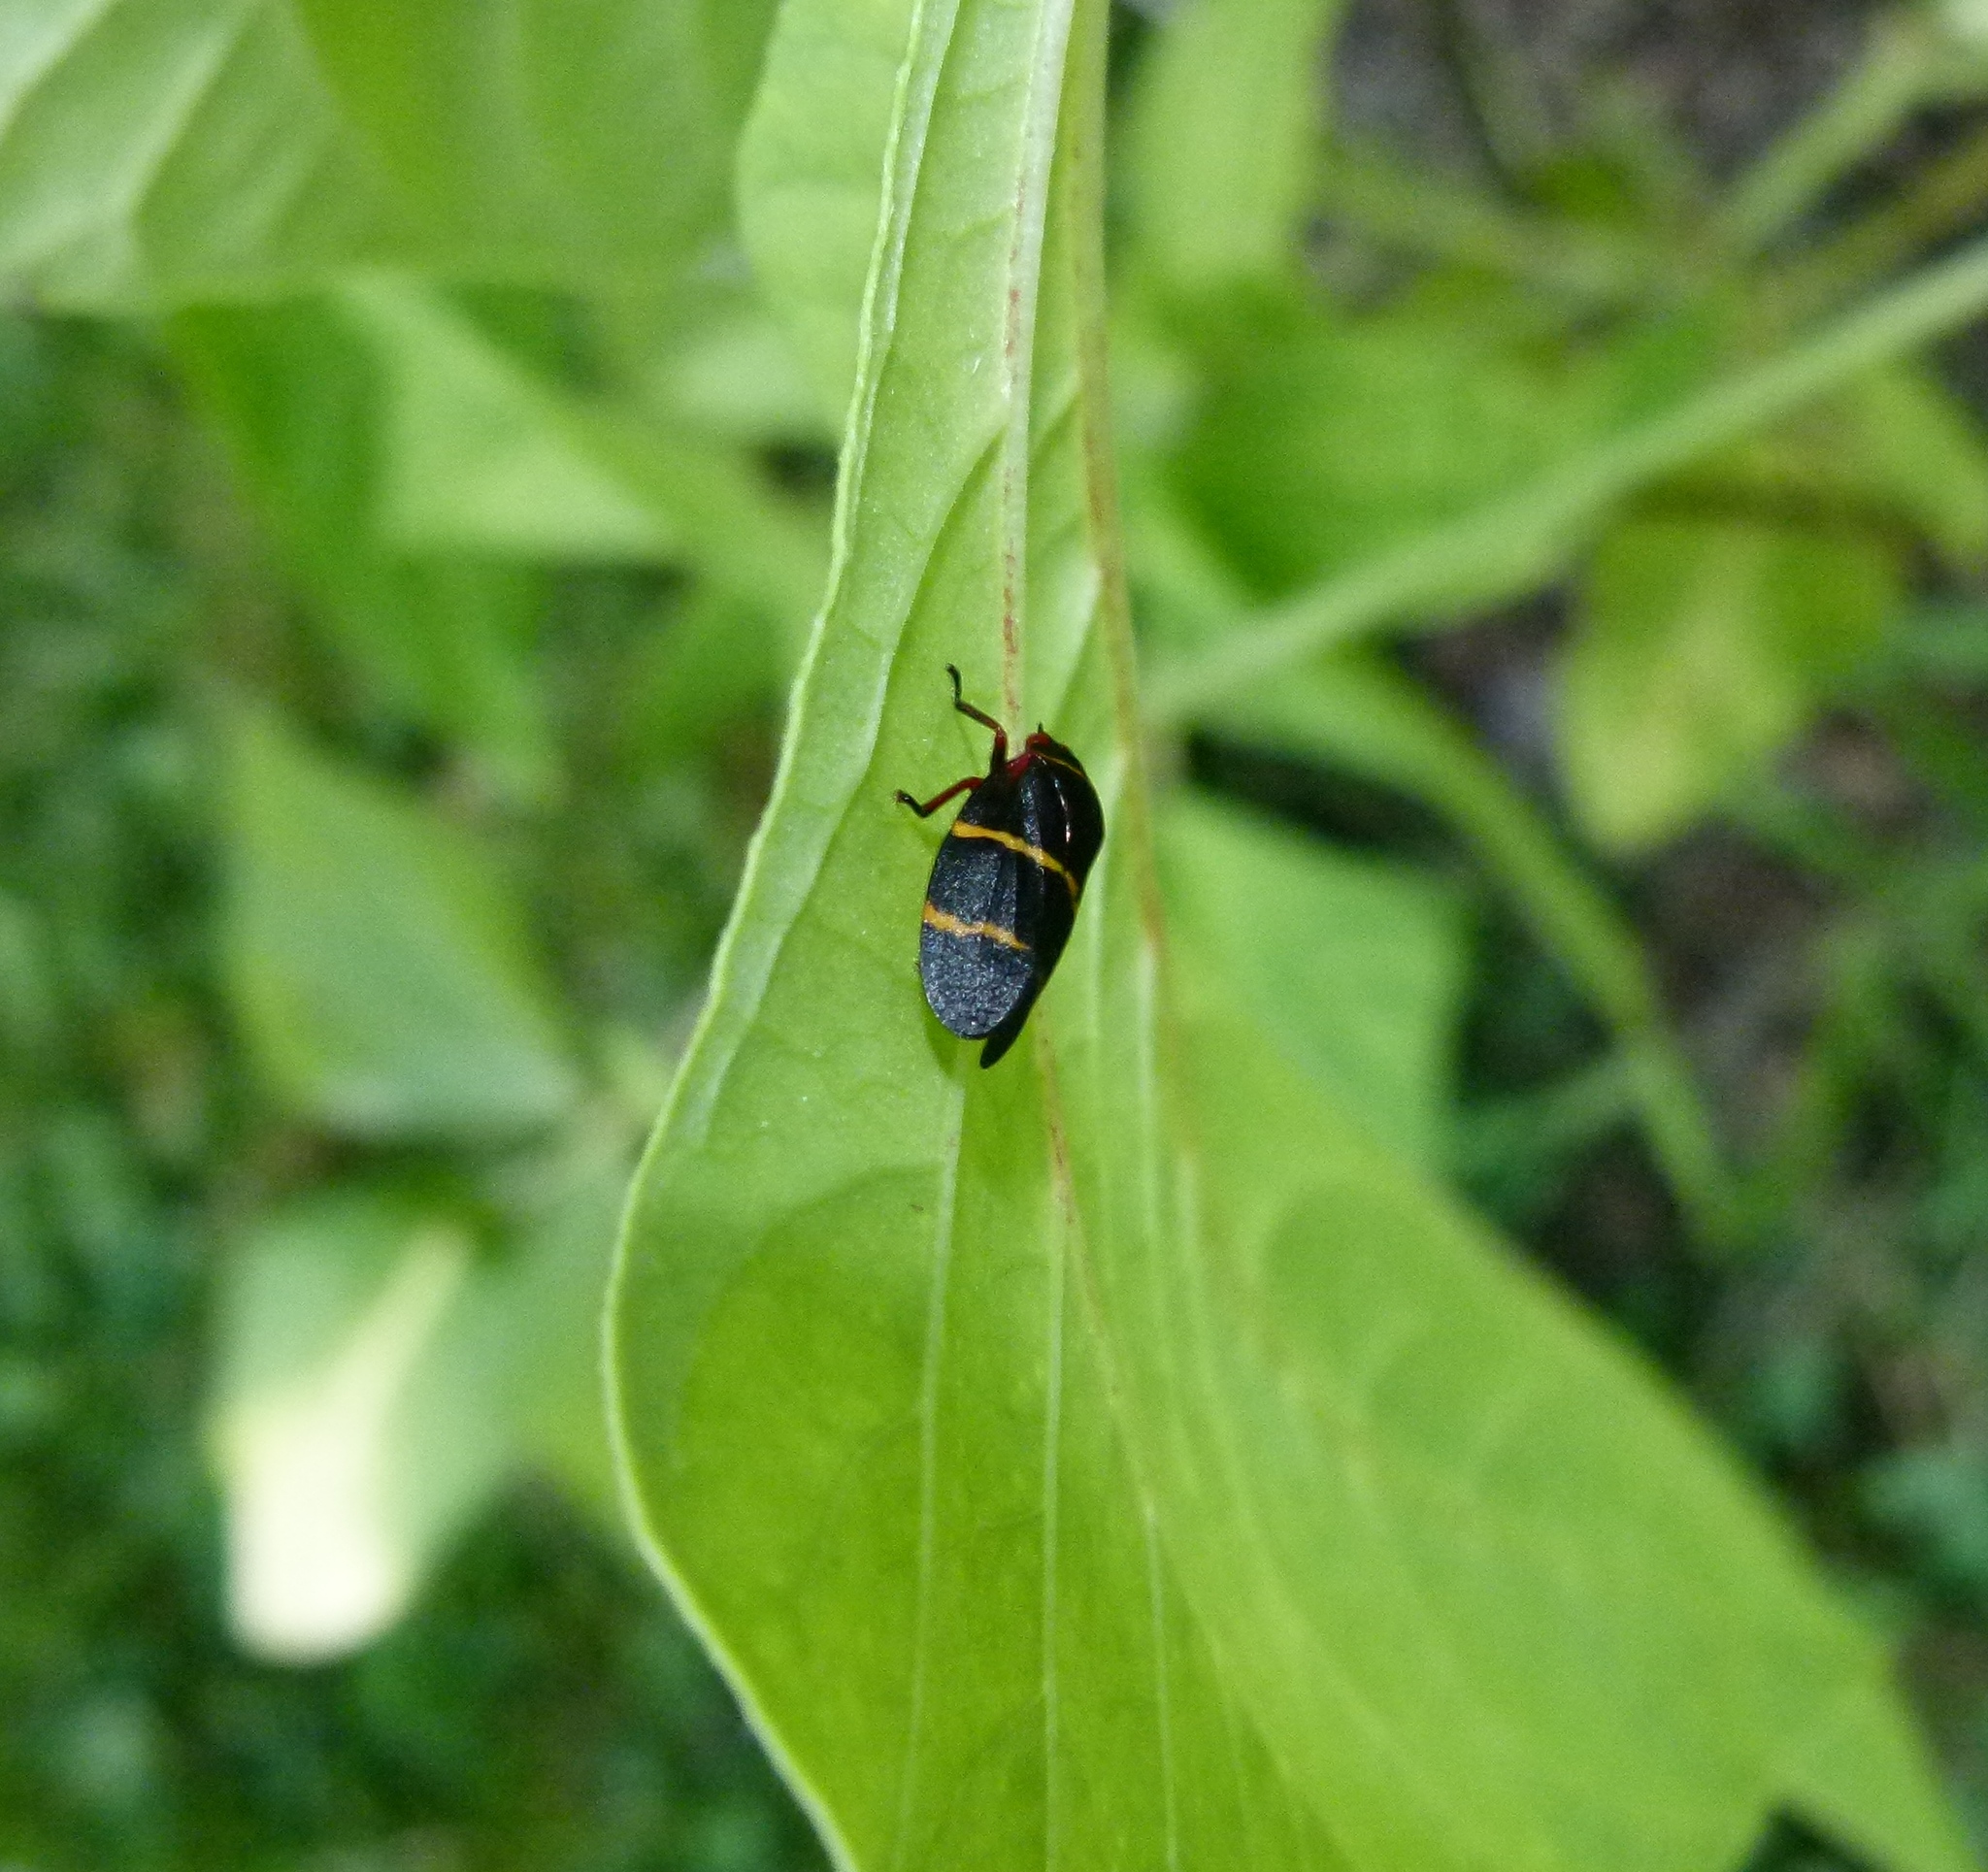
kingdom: Animalia
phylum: Arthropoda
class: Insecta
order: Hemiptera
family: Cercopidae
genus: Prosapia
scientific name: Prosapia bicincta
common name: Twolined spittlebug
